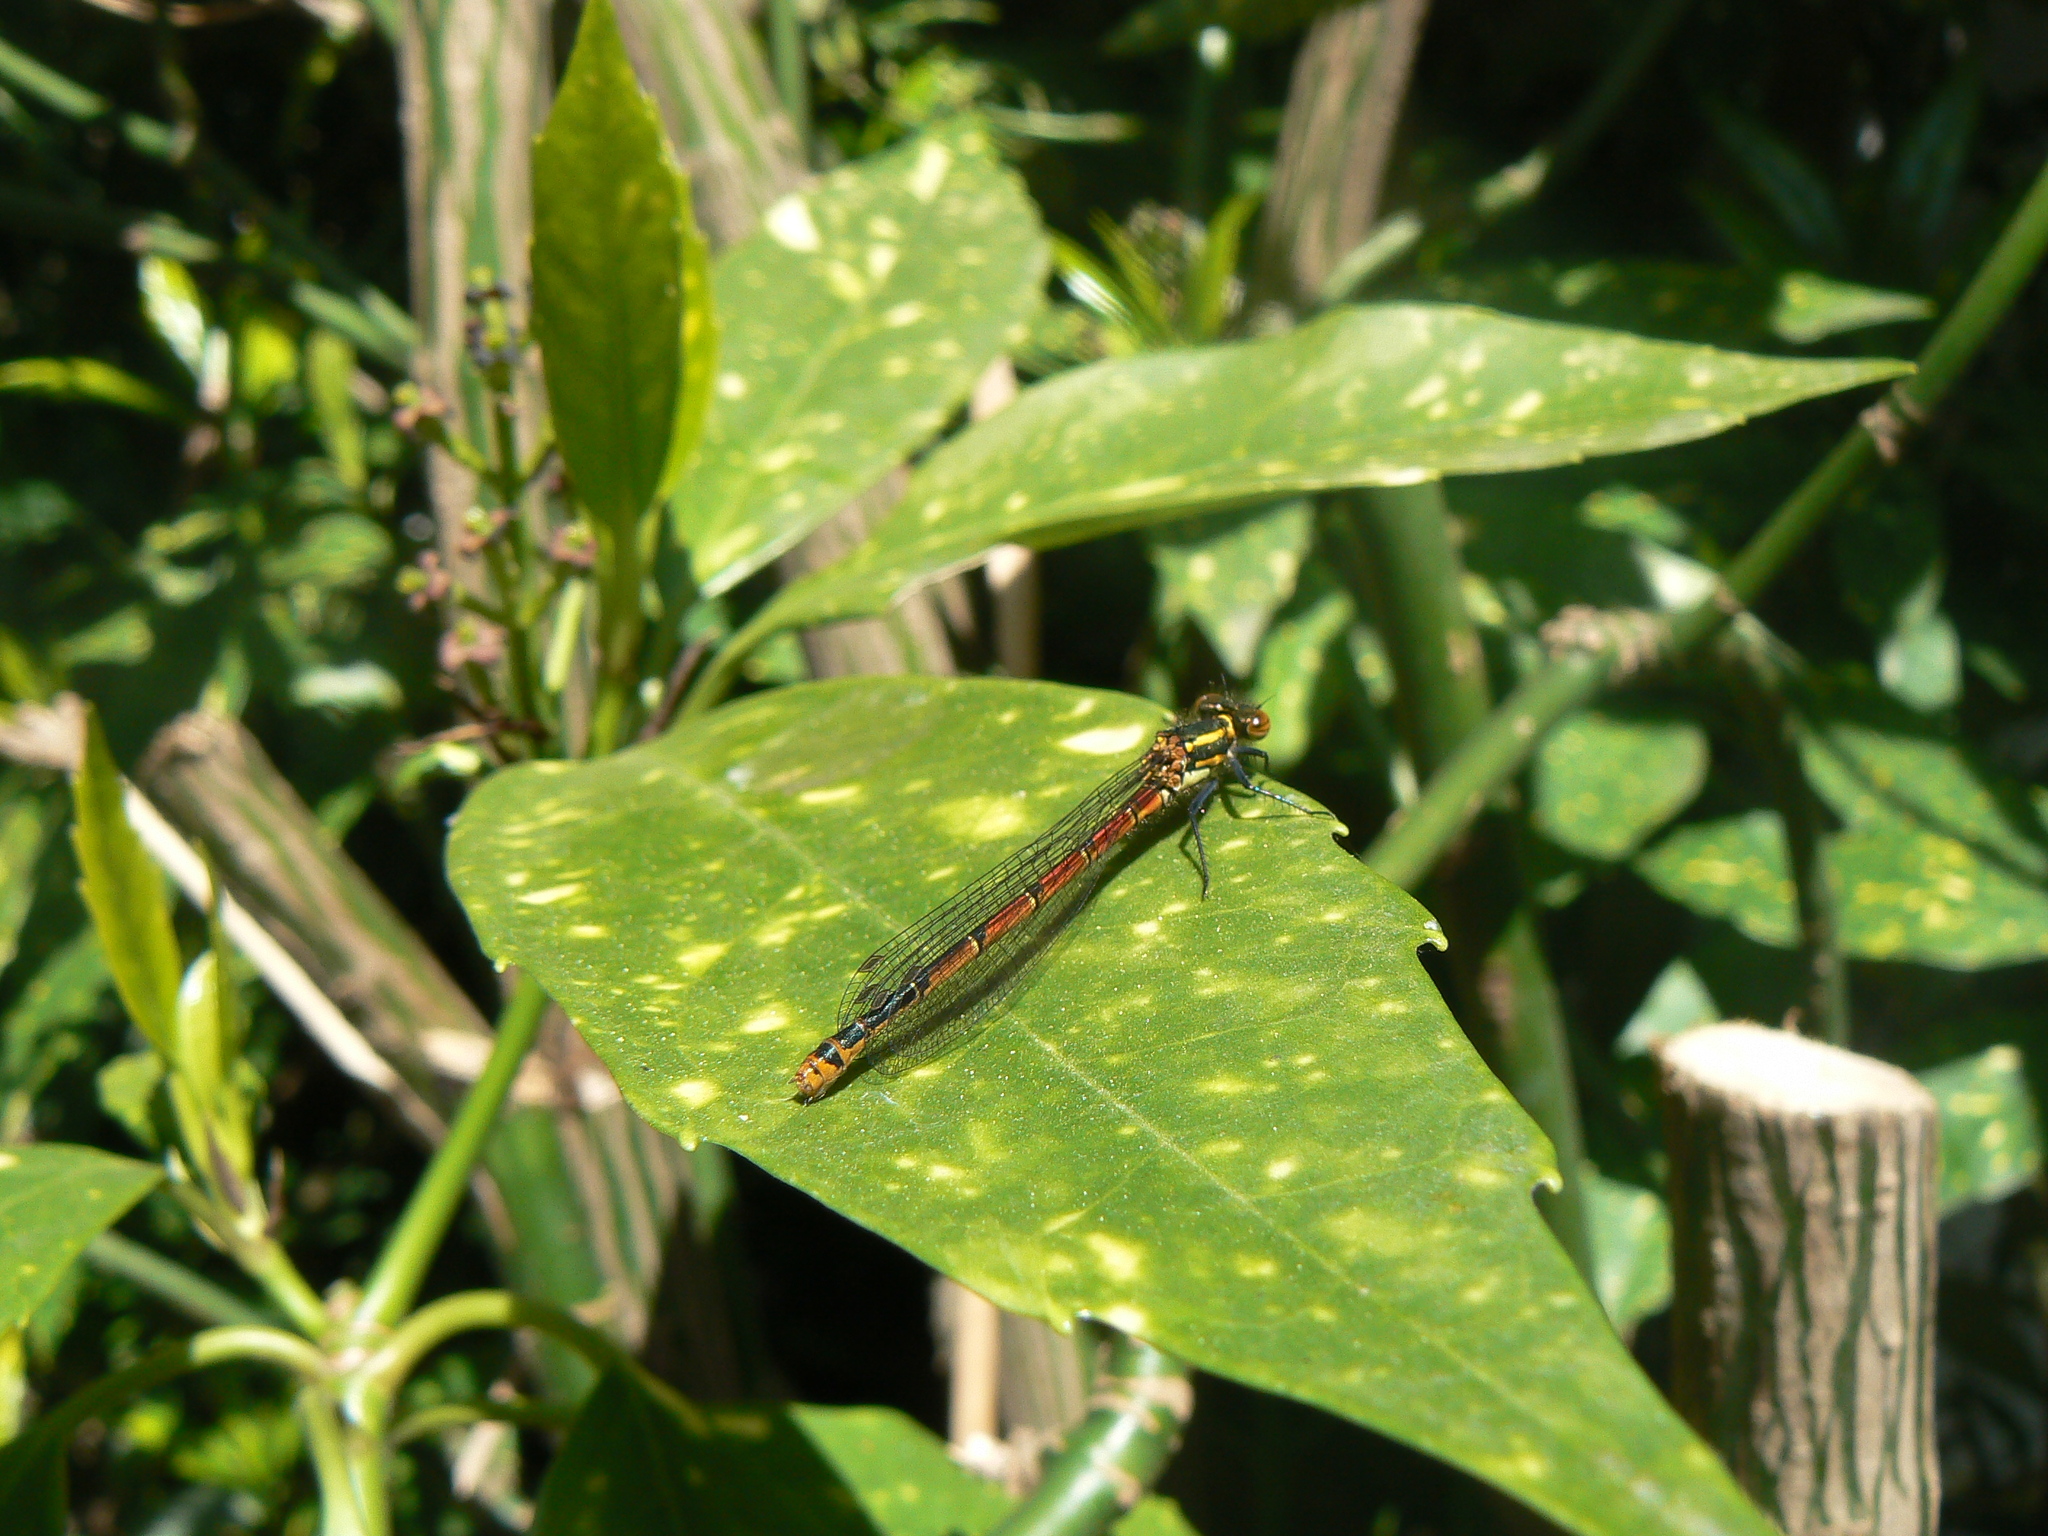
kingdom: Animalia
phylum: Arthropoda
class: Insecta
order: Odonata
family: Coenagrionidae
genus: Pyrrhosoma
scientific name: Pyrrhosoma nymphula
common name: Large red damsel
